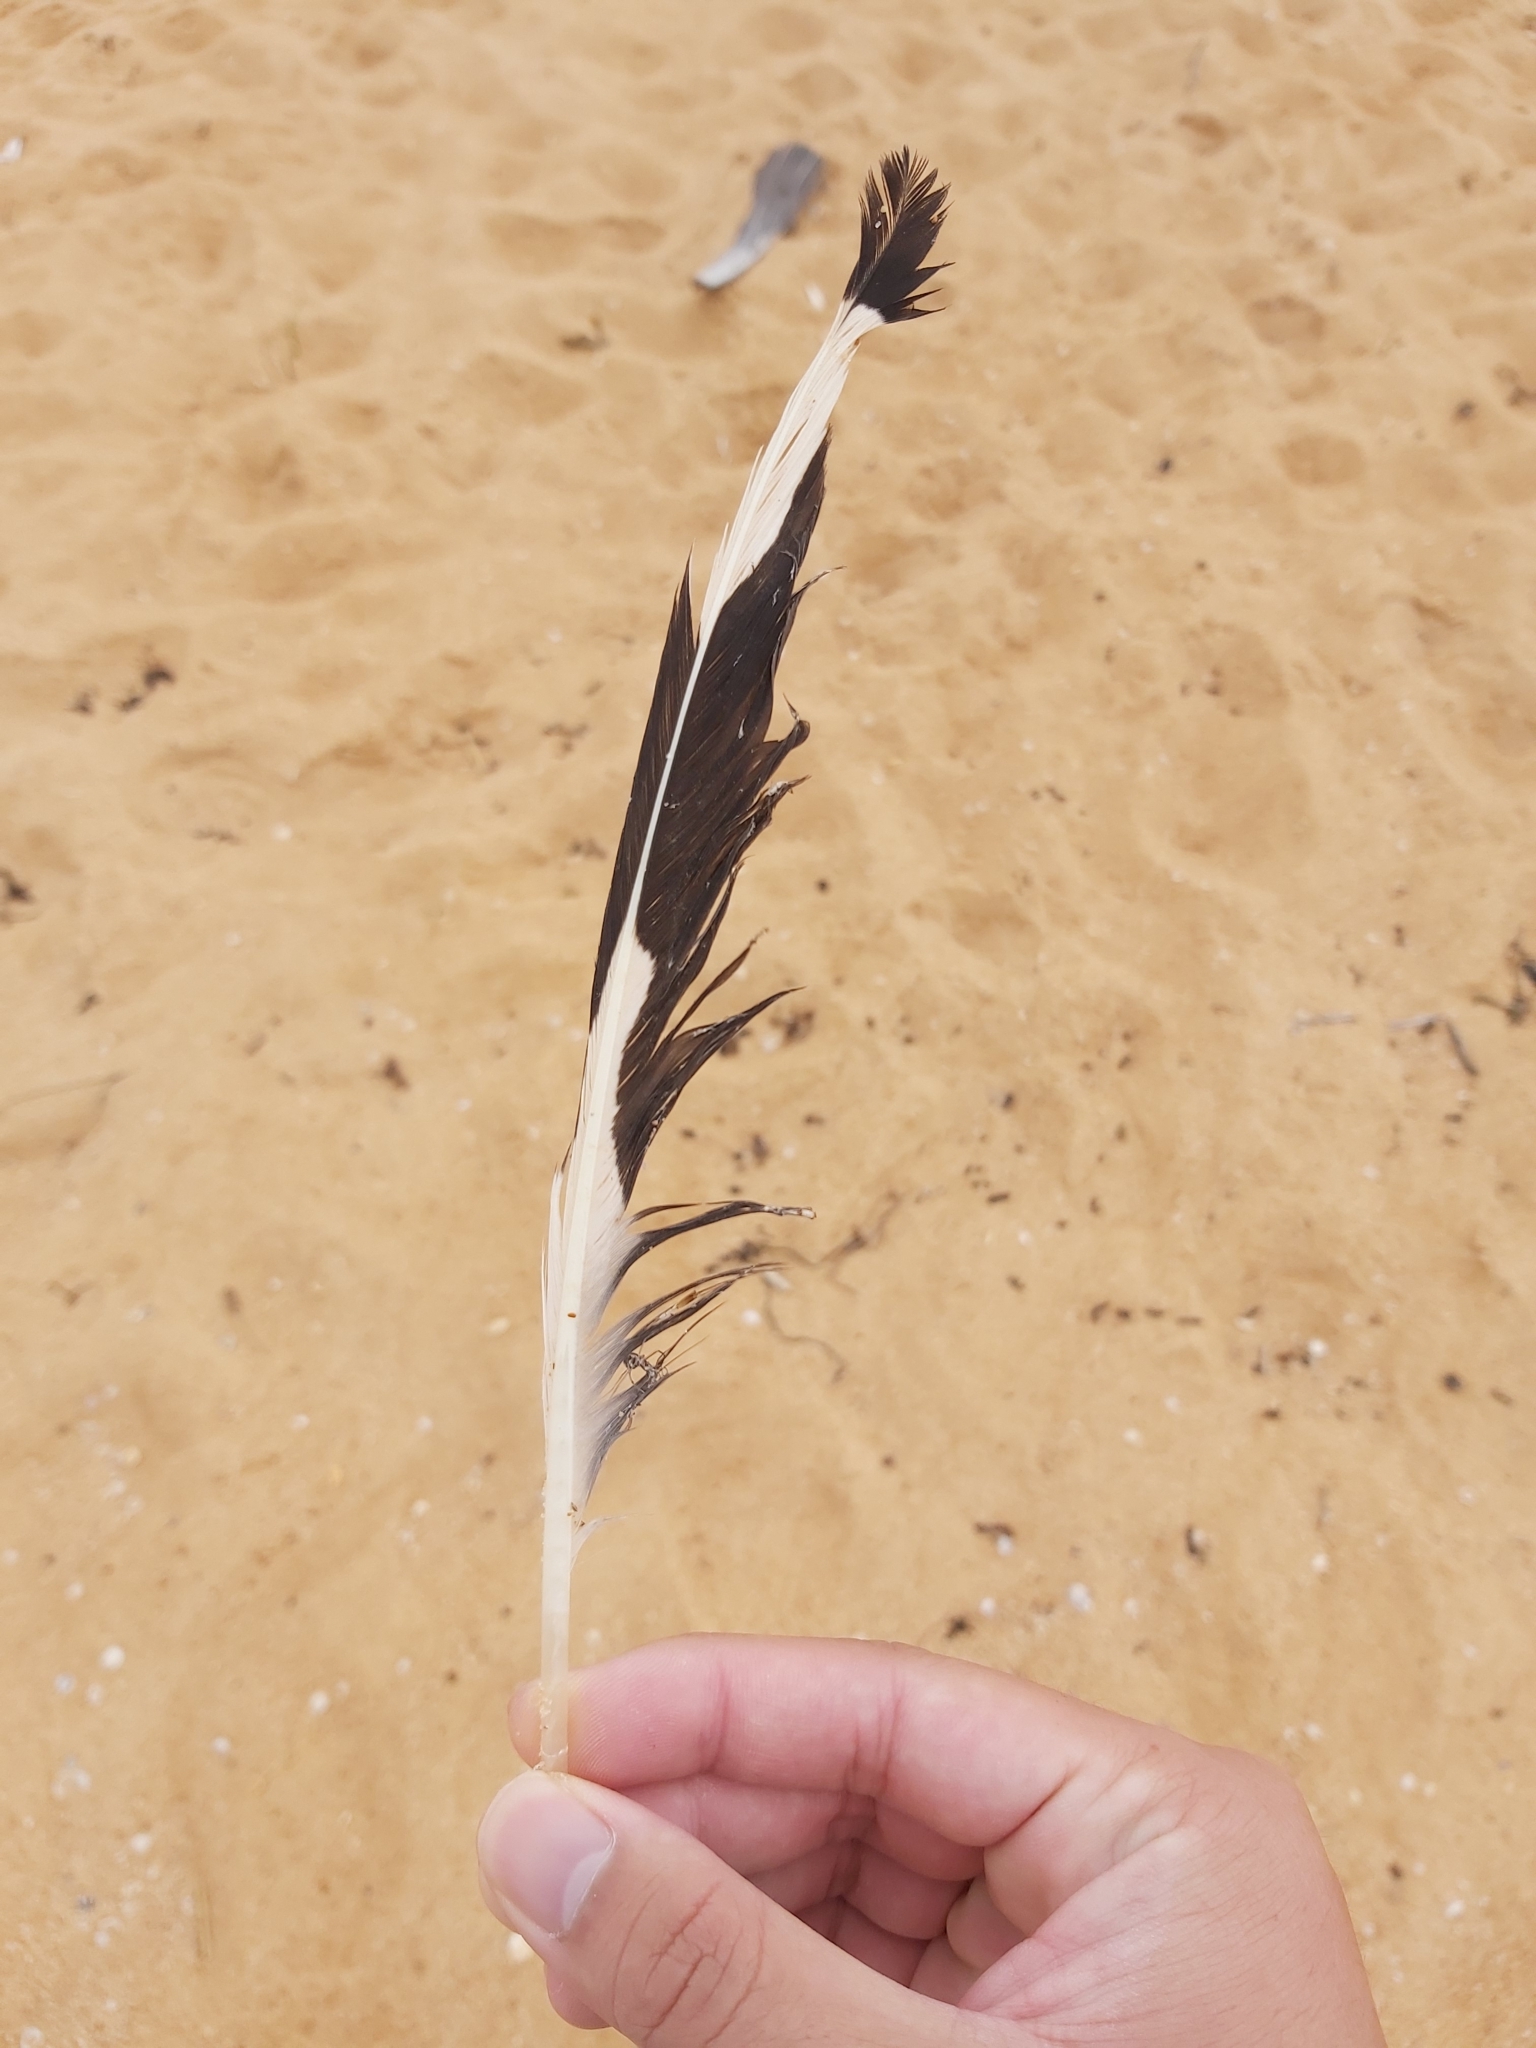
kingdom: Animalia
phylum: Chordata
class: Aves
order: Charadriiformes
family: Laridae
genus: Chroicocephalus
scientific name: Chroicocephalus novaehollandiae
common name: Silver gull
